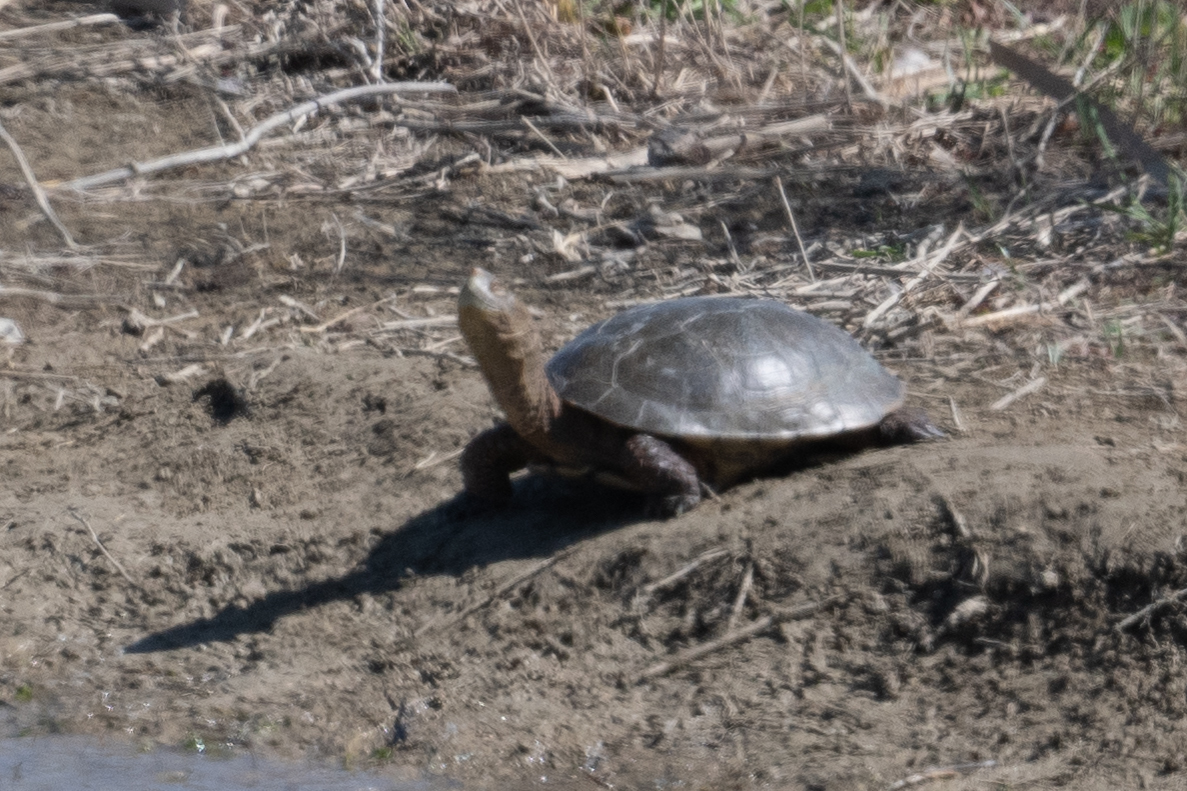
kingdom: Animalia
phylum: Chordata
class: Testudines
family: Emydidae
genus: Actinemys
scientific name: Actinemys marmorata
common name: Western pond turtle
